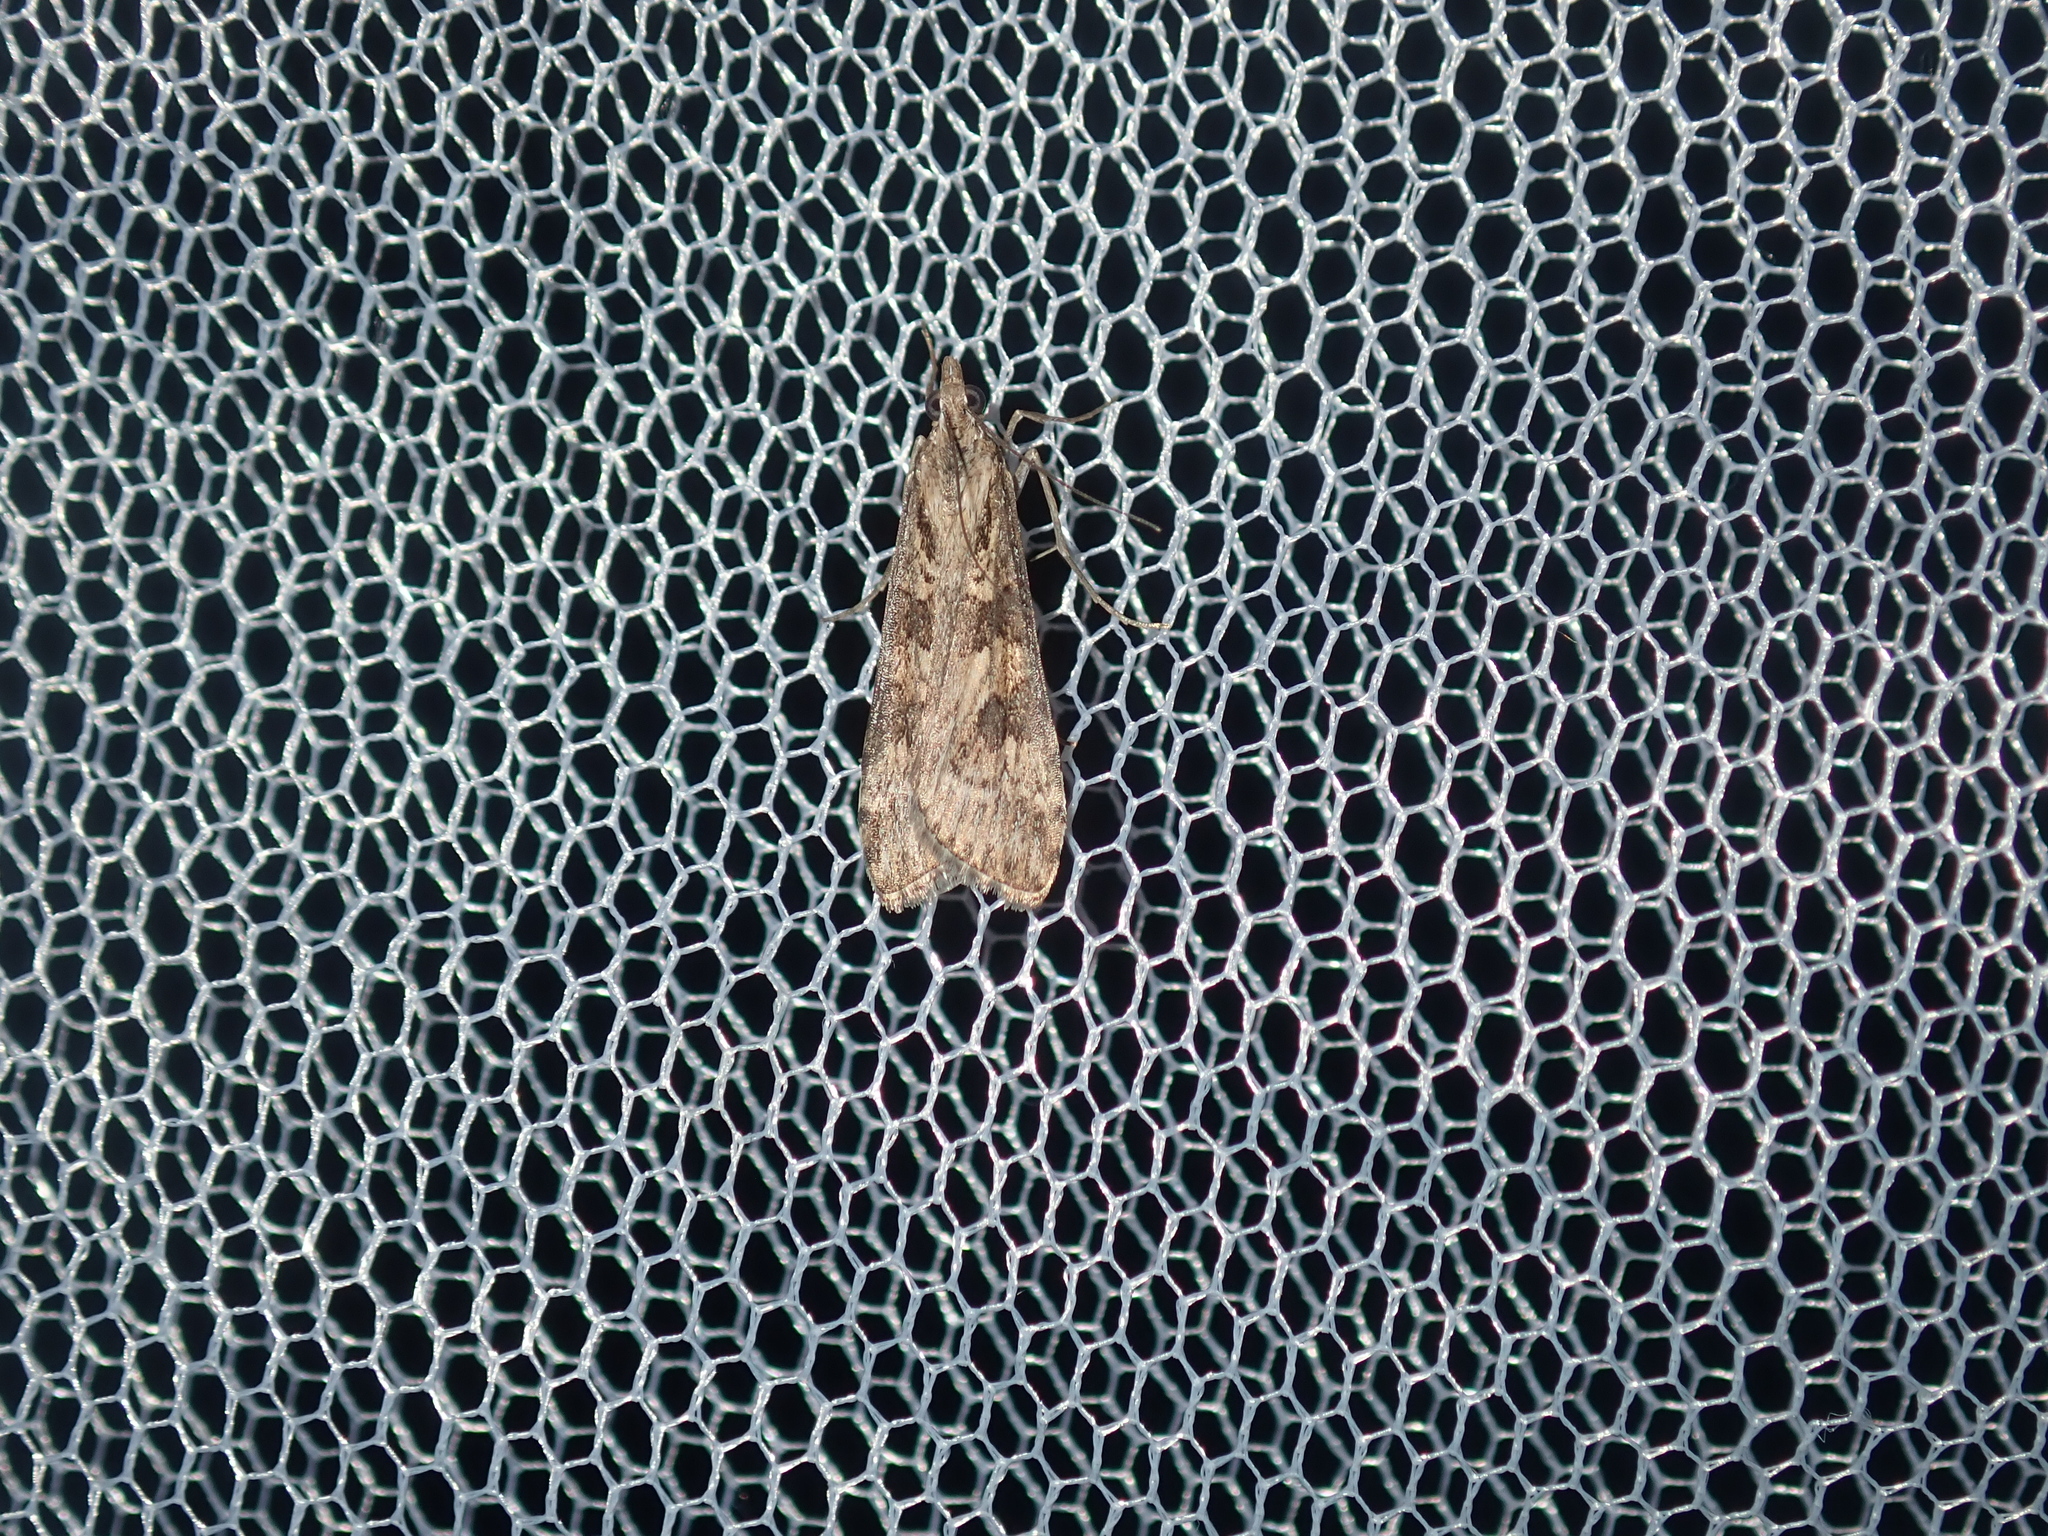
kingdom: Animalia
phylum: Arthropoda
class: Insecta
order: Lepidoptera
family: Crambidae
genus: Nomophila
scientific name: Nomophila corticalis
